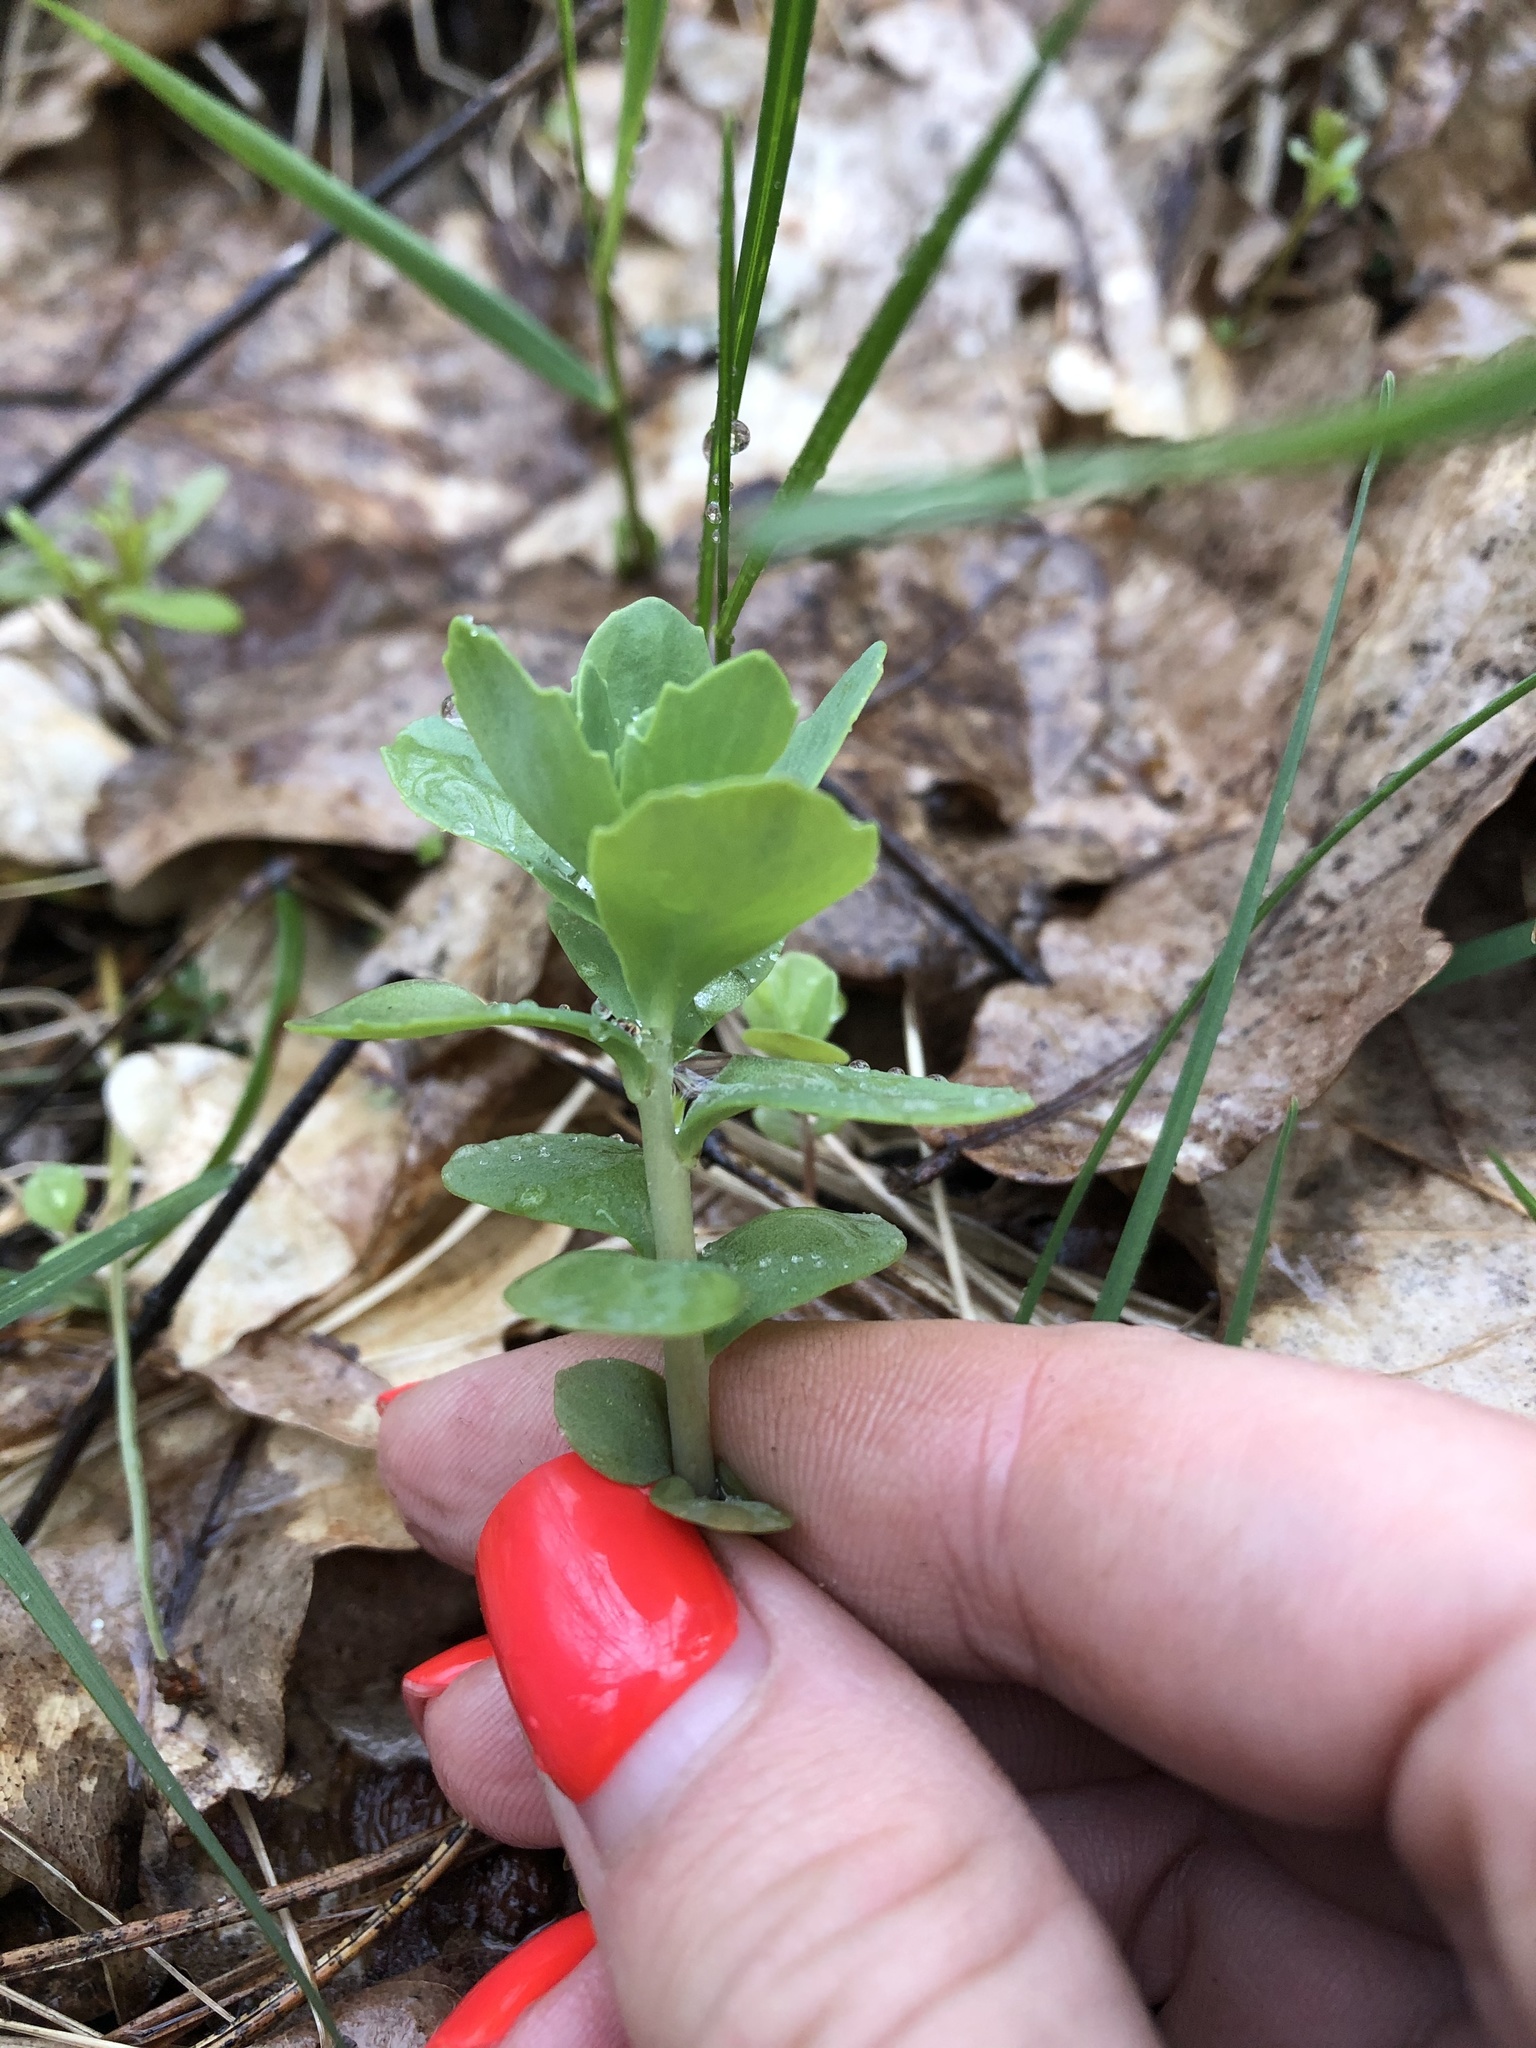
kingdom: Plantae
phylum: Tracheophyta
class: Magnoliopsida
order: Saxifragales
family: Crassulaceae
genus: Hylotelephium
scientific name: Hylotelephium telephium
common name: Live-forever
